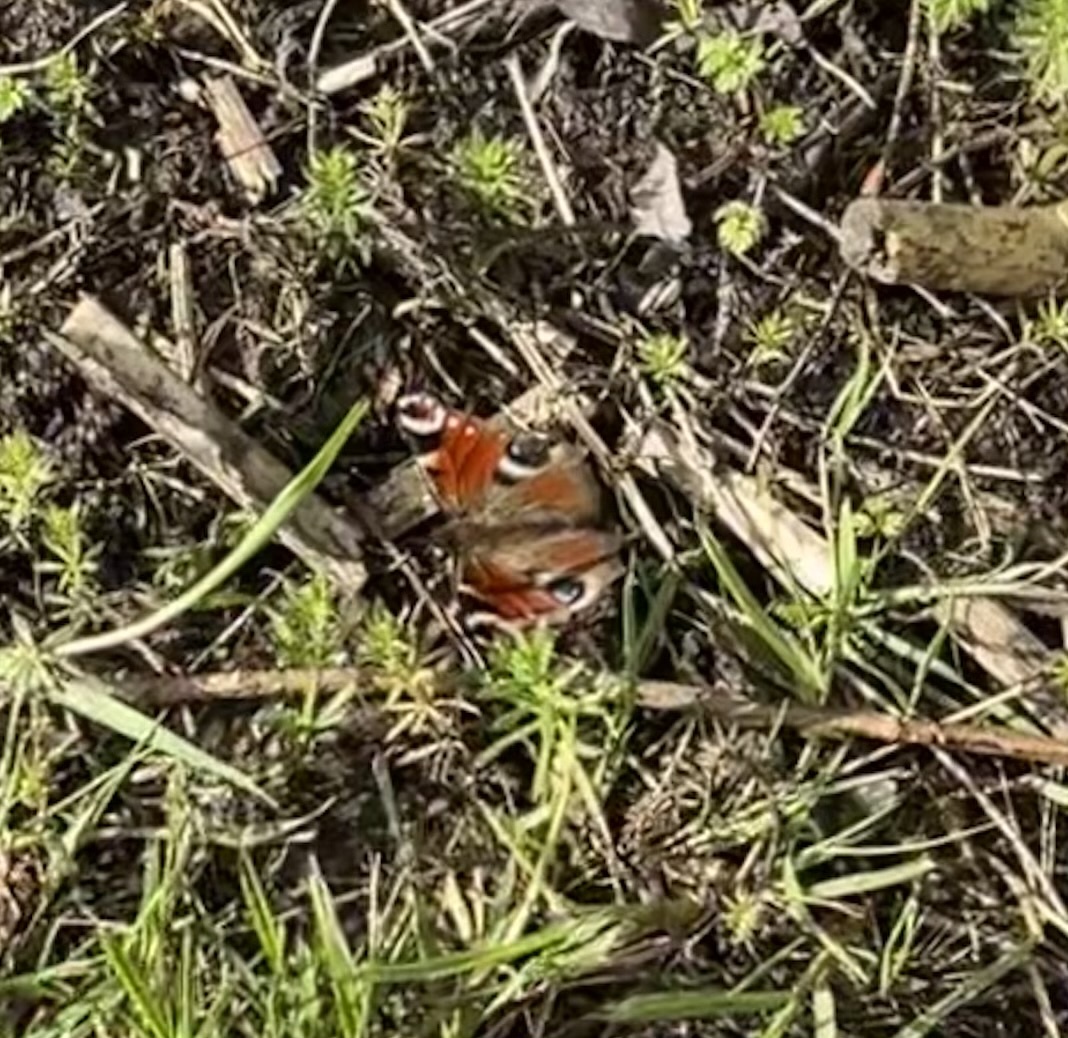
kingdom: Animalia
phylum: Arthropoda
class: Insecta
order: Lepidoptera
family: Nymphalidae
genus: Aglais
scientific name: Aglais io
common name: Peacock
